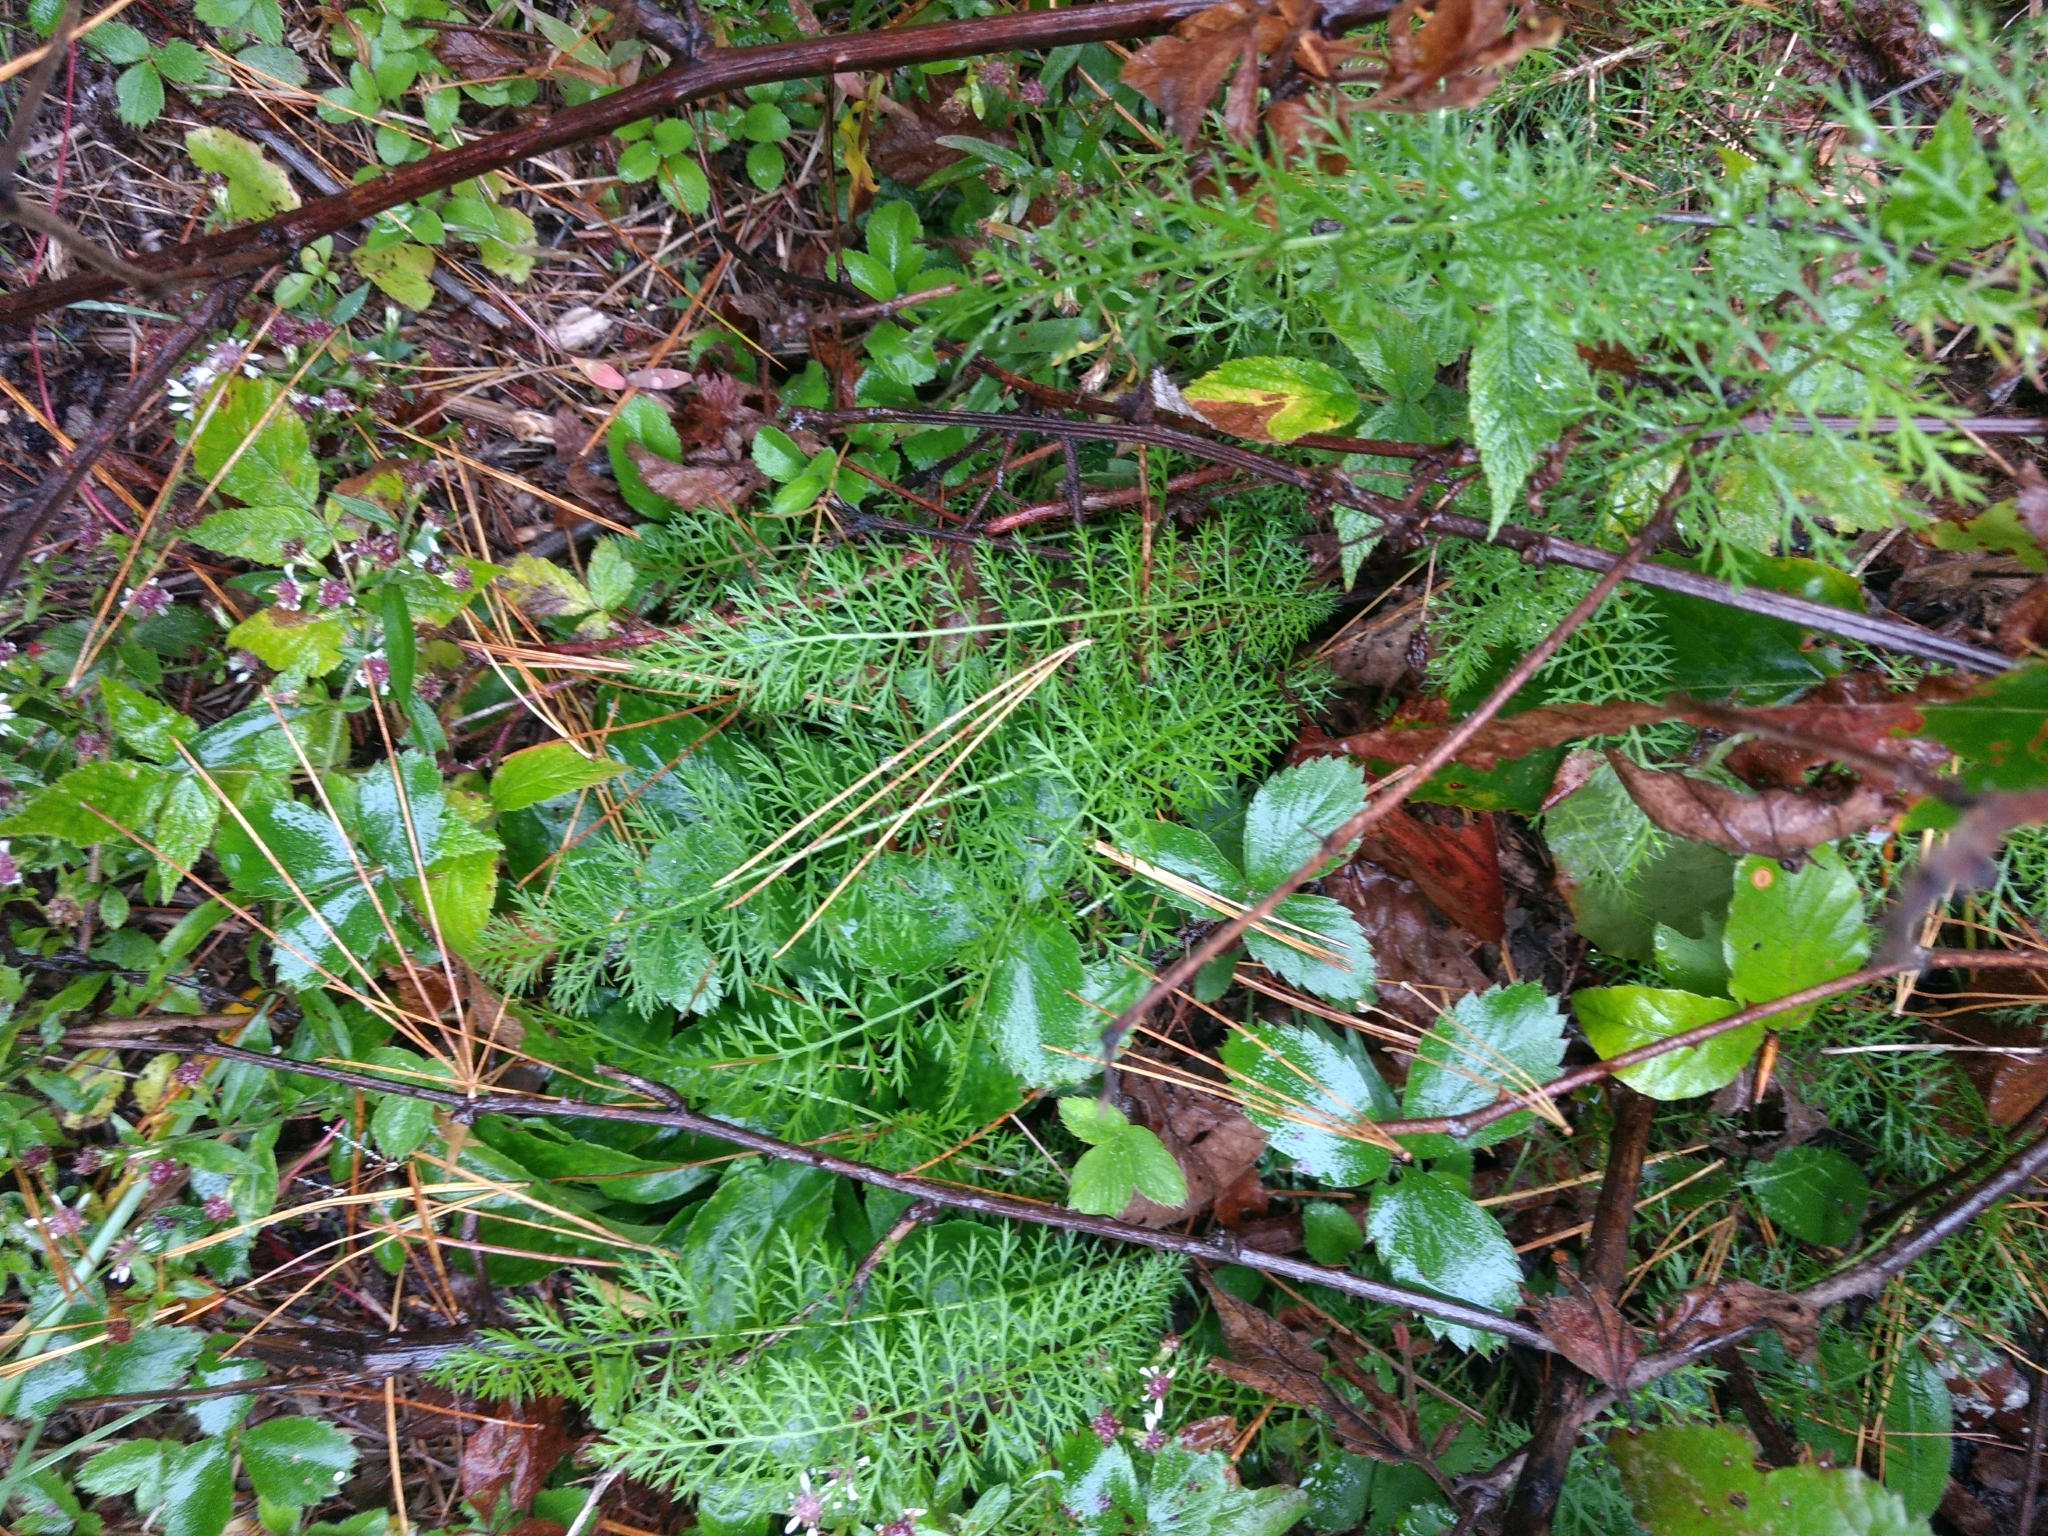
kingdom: Plantae
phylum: Tracheophyta
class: Magnoliopsida
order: Asterales
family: Asteraceae
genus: Achillea
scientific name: Achillea millefolium
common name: Yarrow
